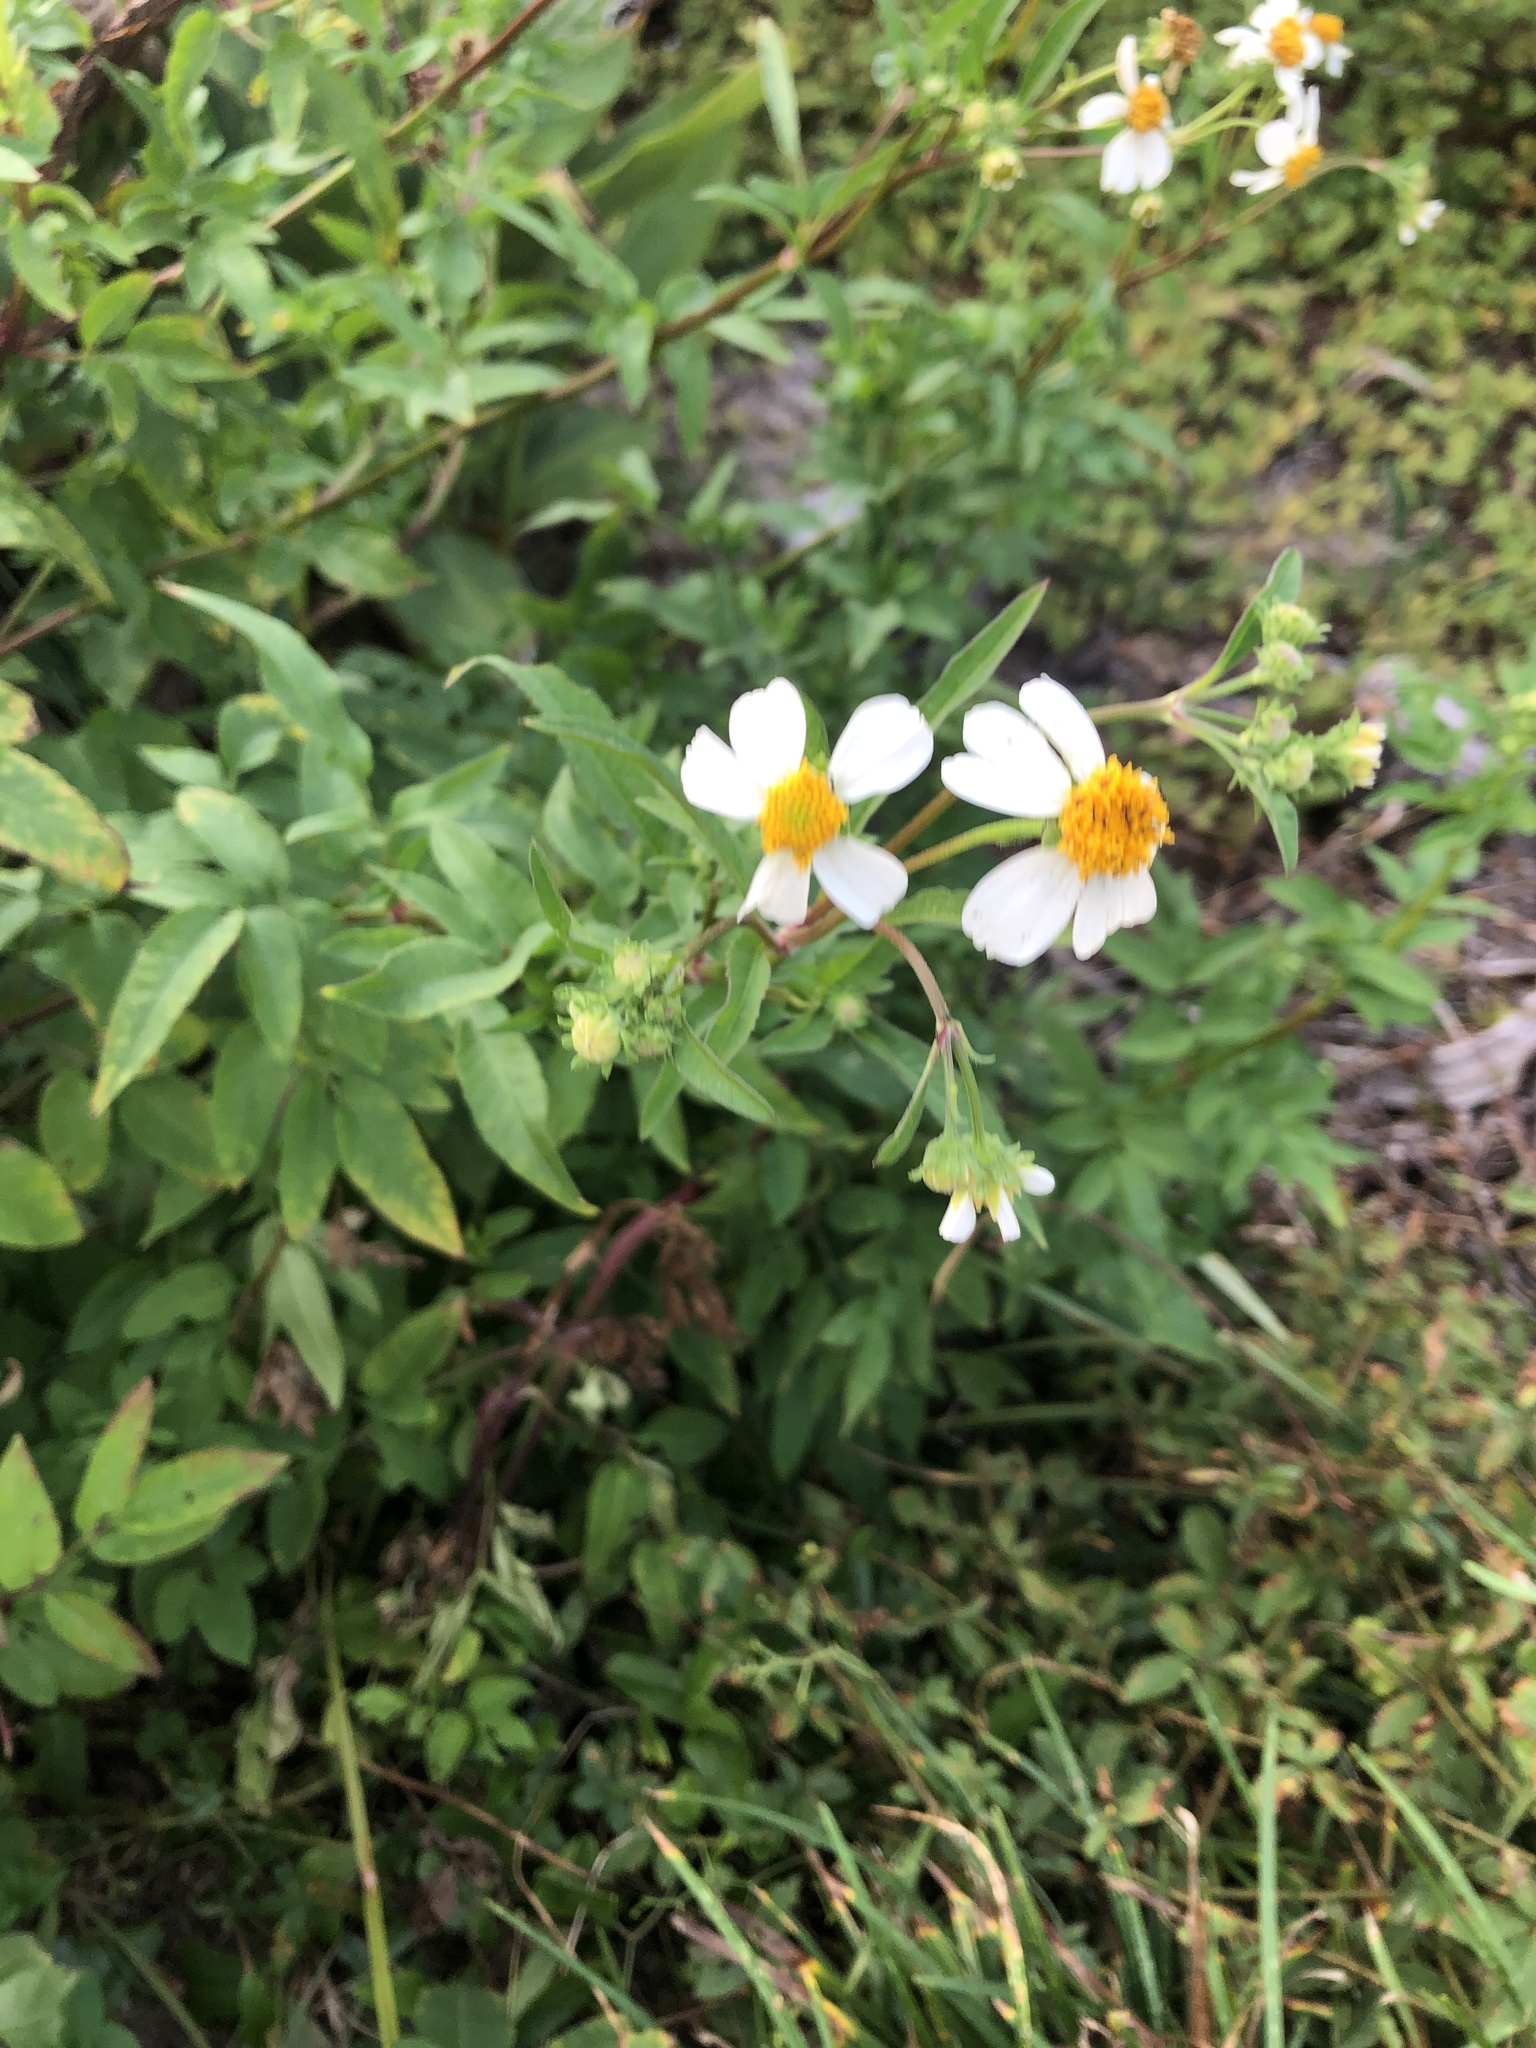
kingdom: Plantae
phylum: Tracheophyta
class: Magnoliopsida
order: Asterales
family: Asteraceae
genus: Bidens
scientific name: Bidens alba
